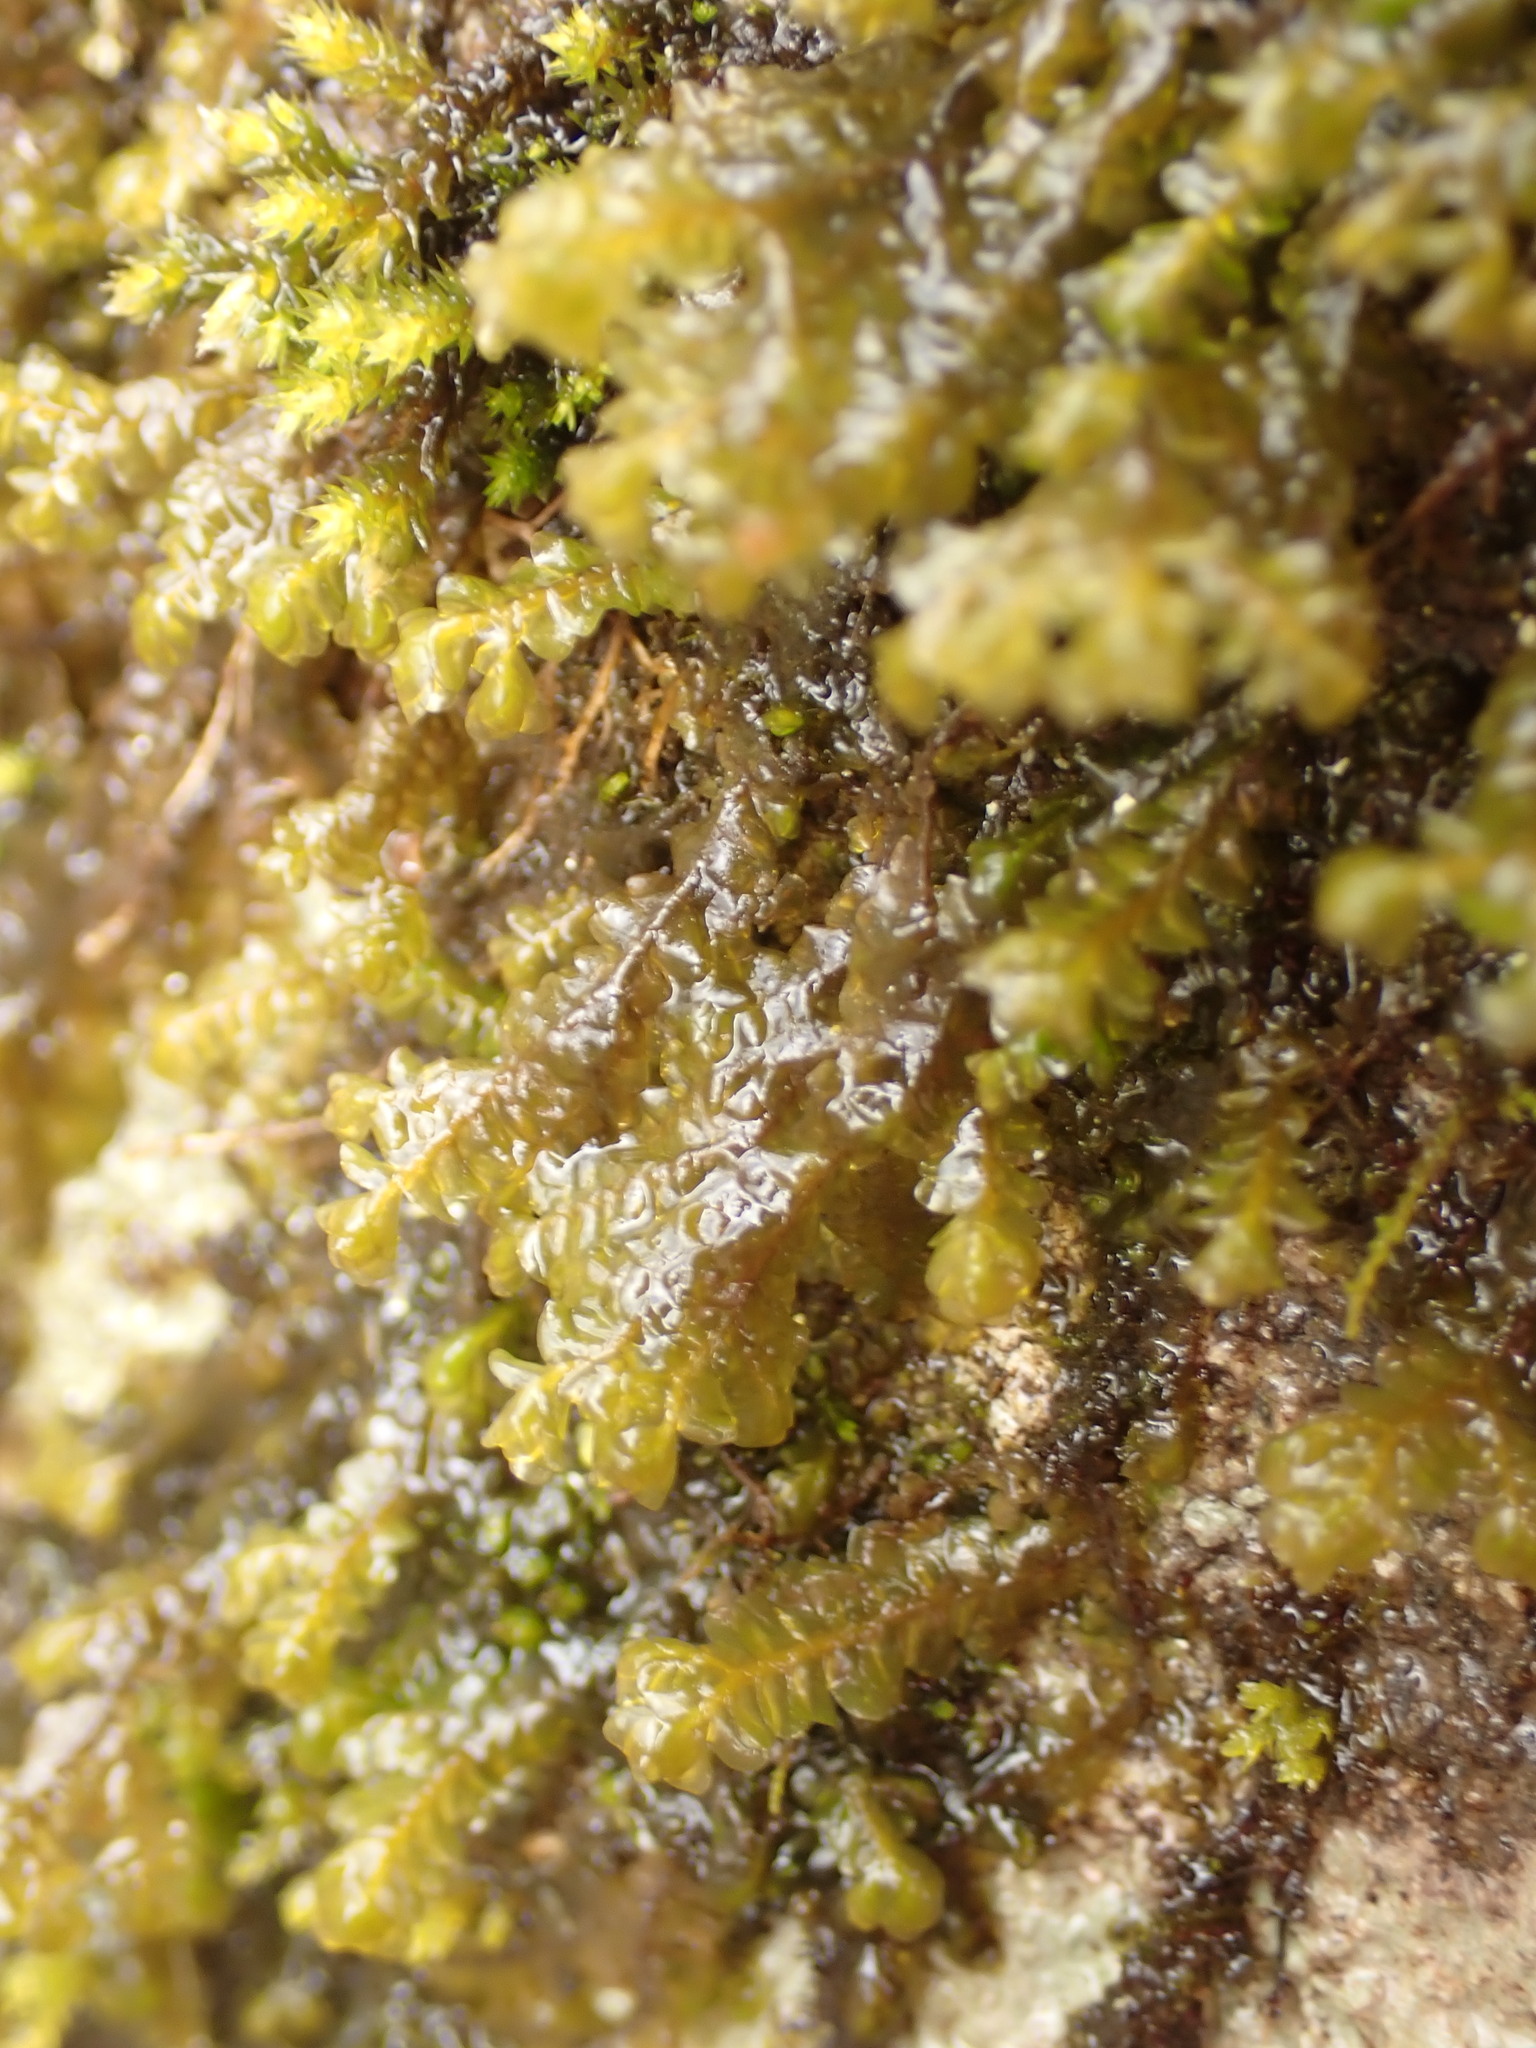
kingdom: Plantae
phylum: Marchantiophyta
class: Jungermanniopsida
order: Porellales
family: Porellaceae
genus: Porella
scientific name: Porella pinnata
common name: Pinnate scalewort
